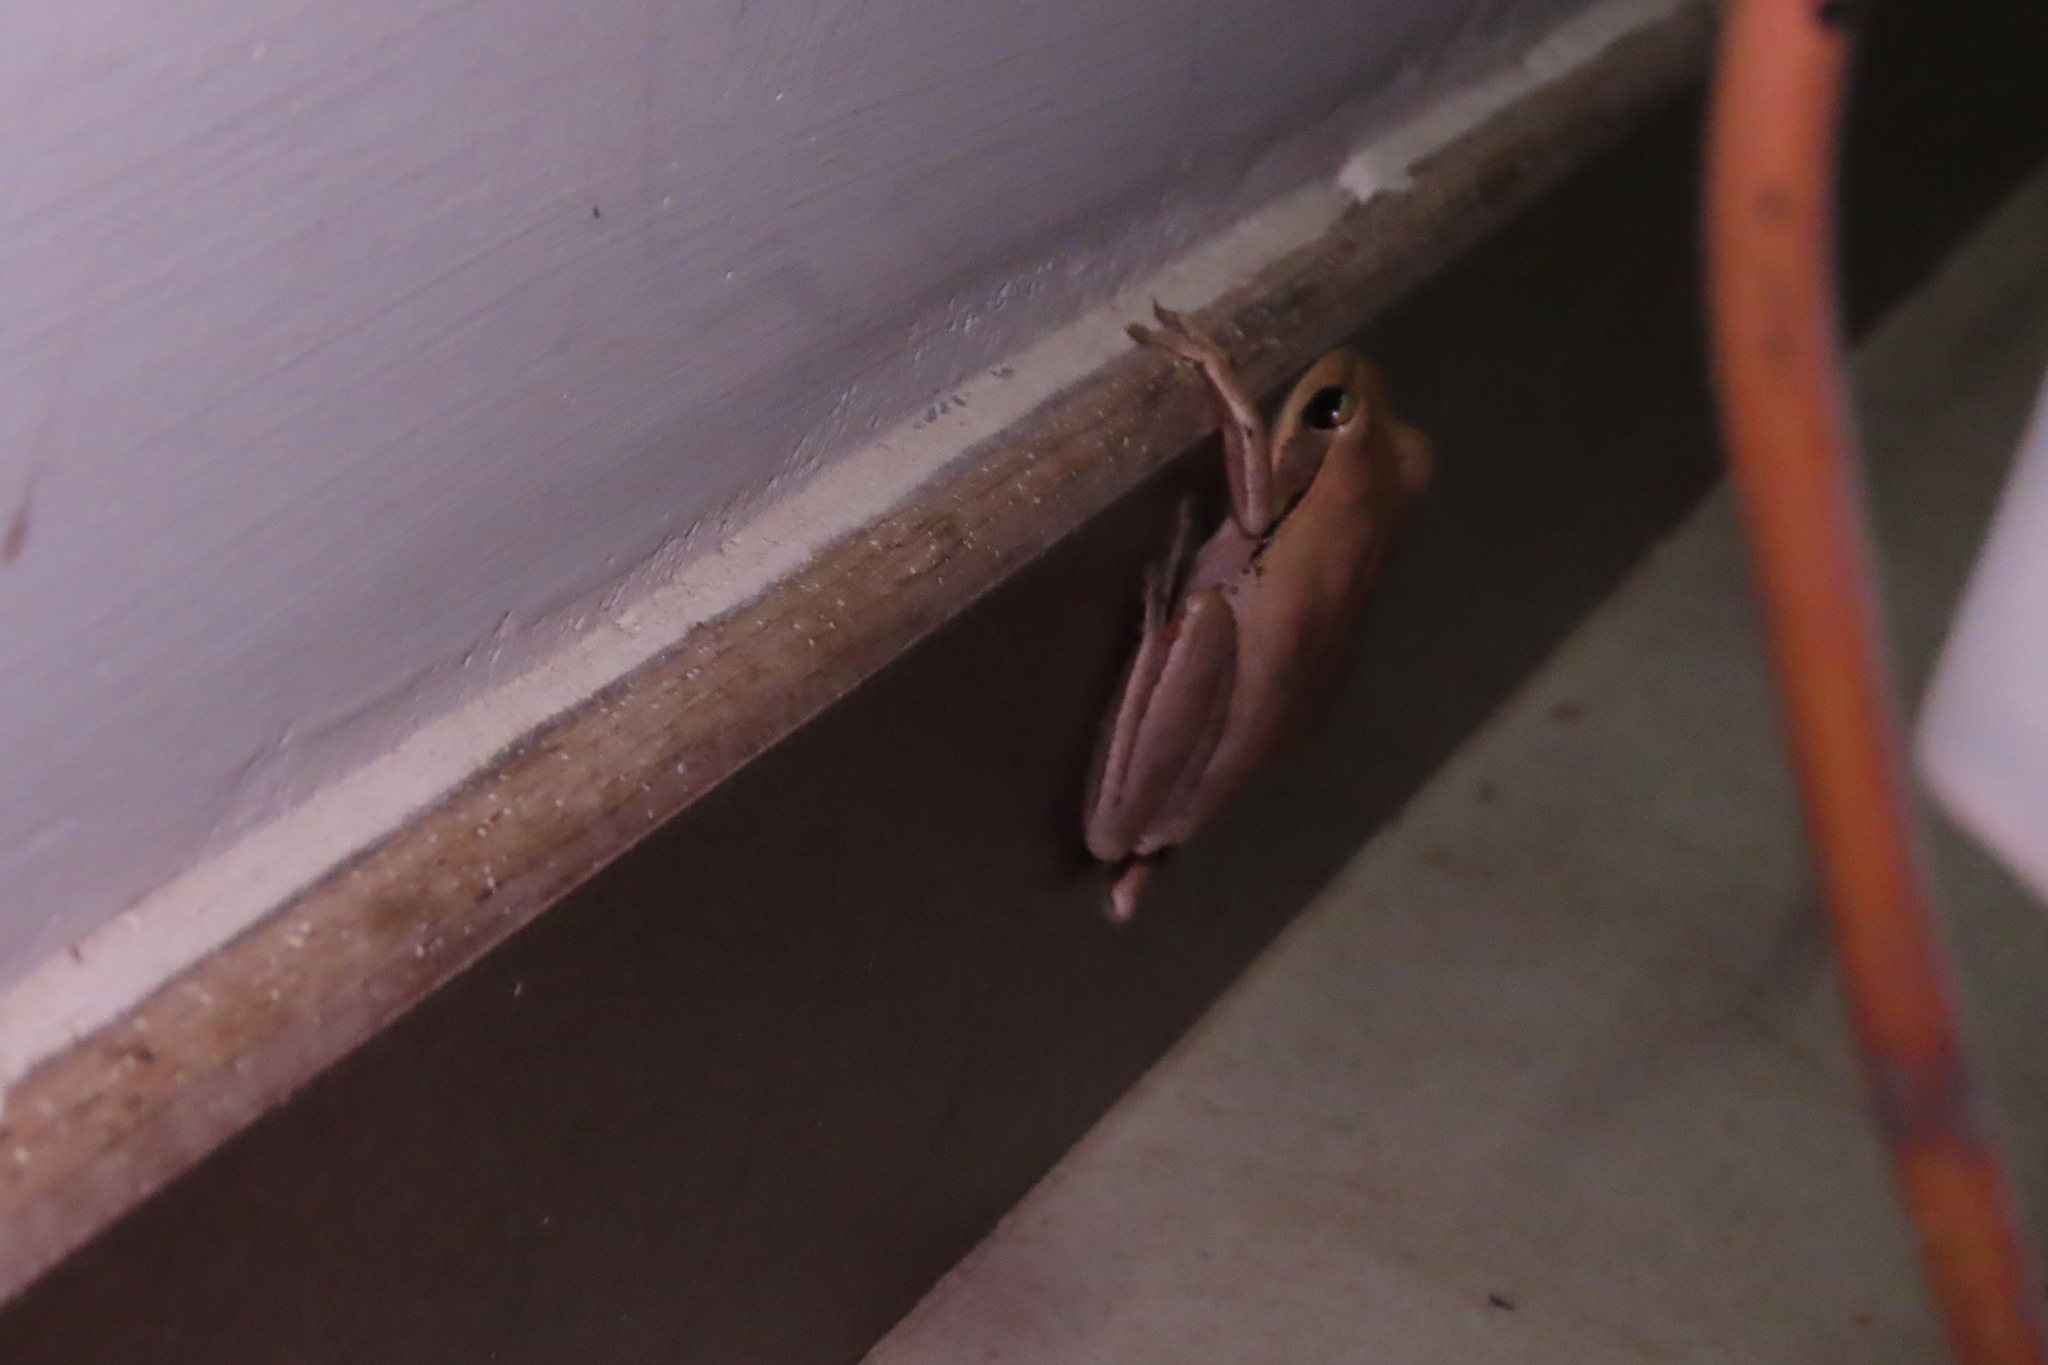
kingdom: Animalia
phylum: Chordata
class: Amphibia
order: Anura
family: Rhacophoridae
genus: Polypedates
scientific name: Polypedates maculatus
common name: Himalayan tree frog
